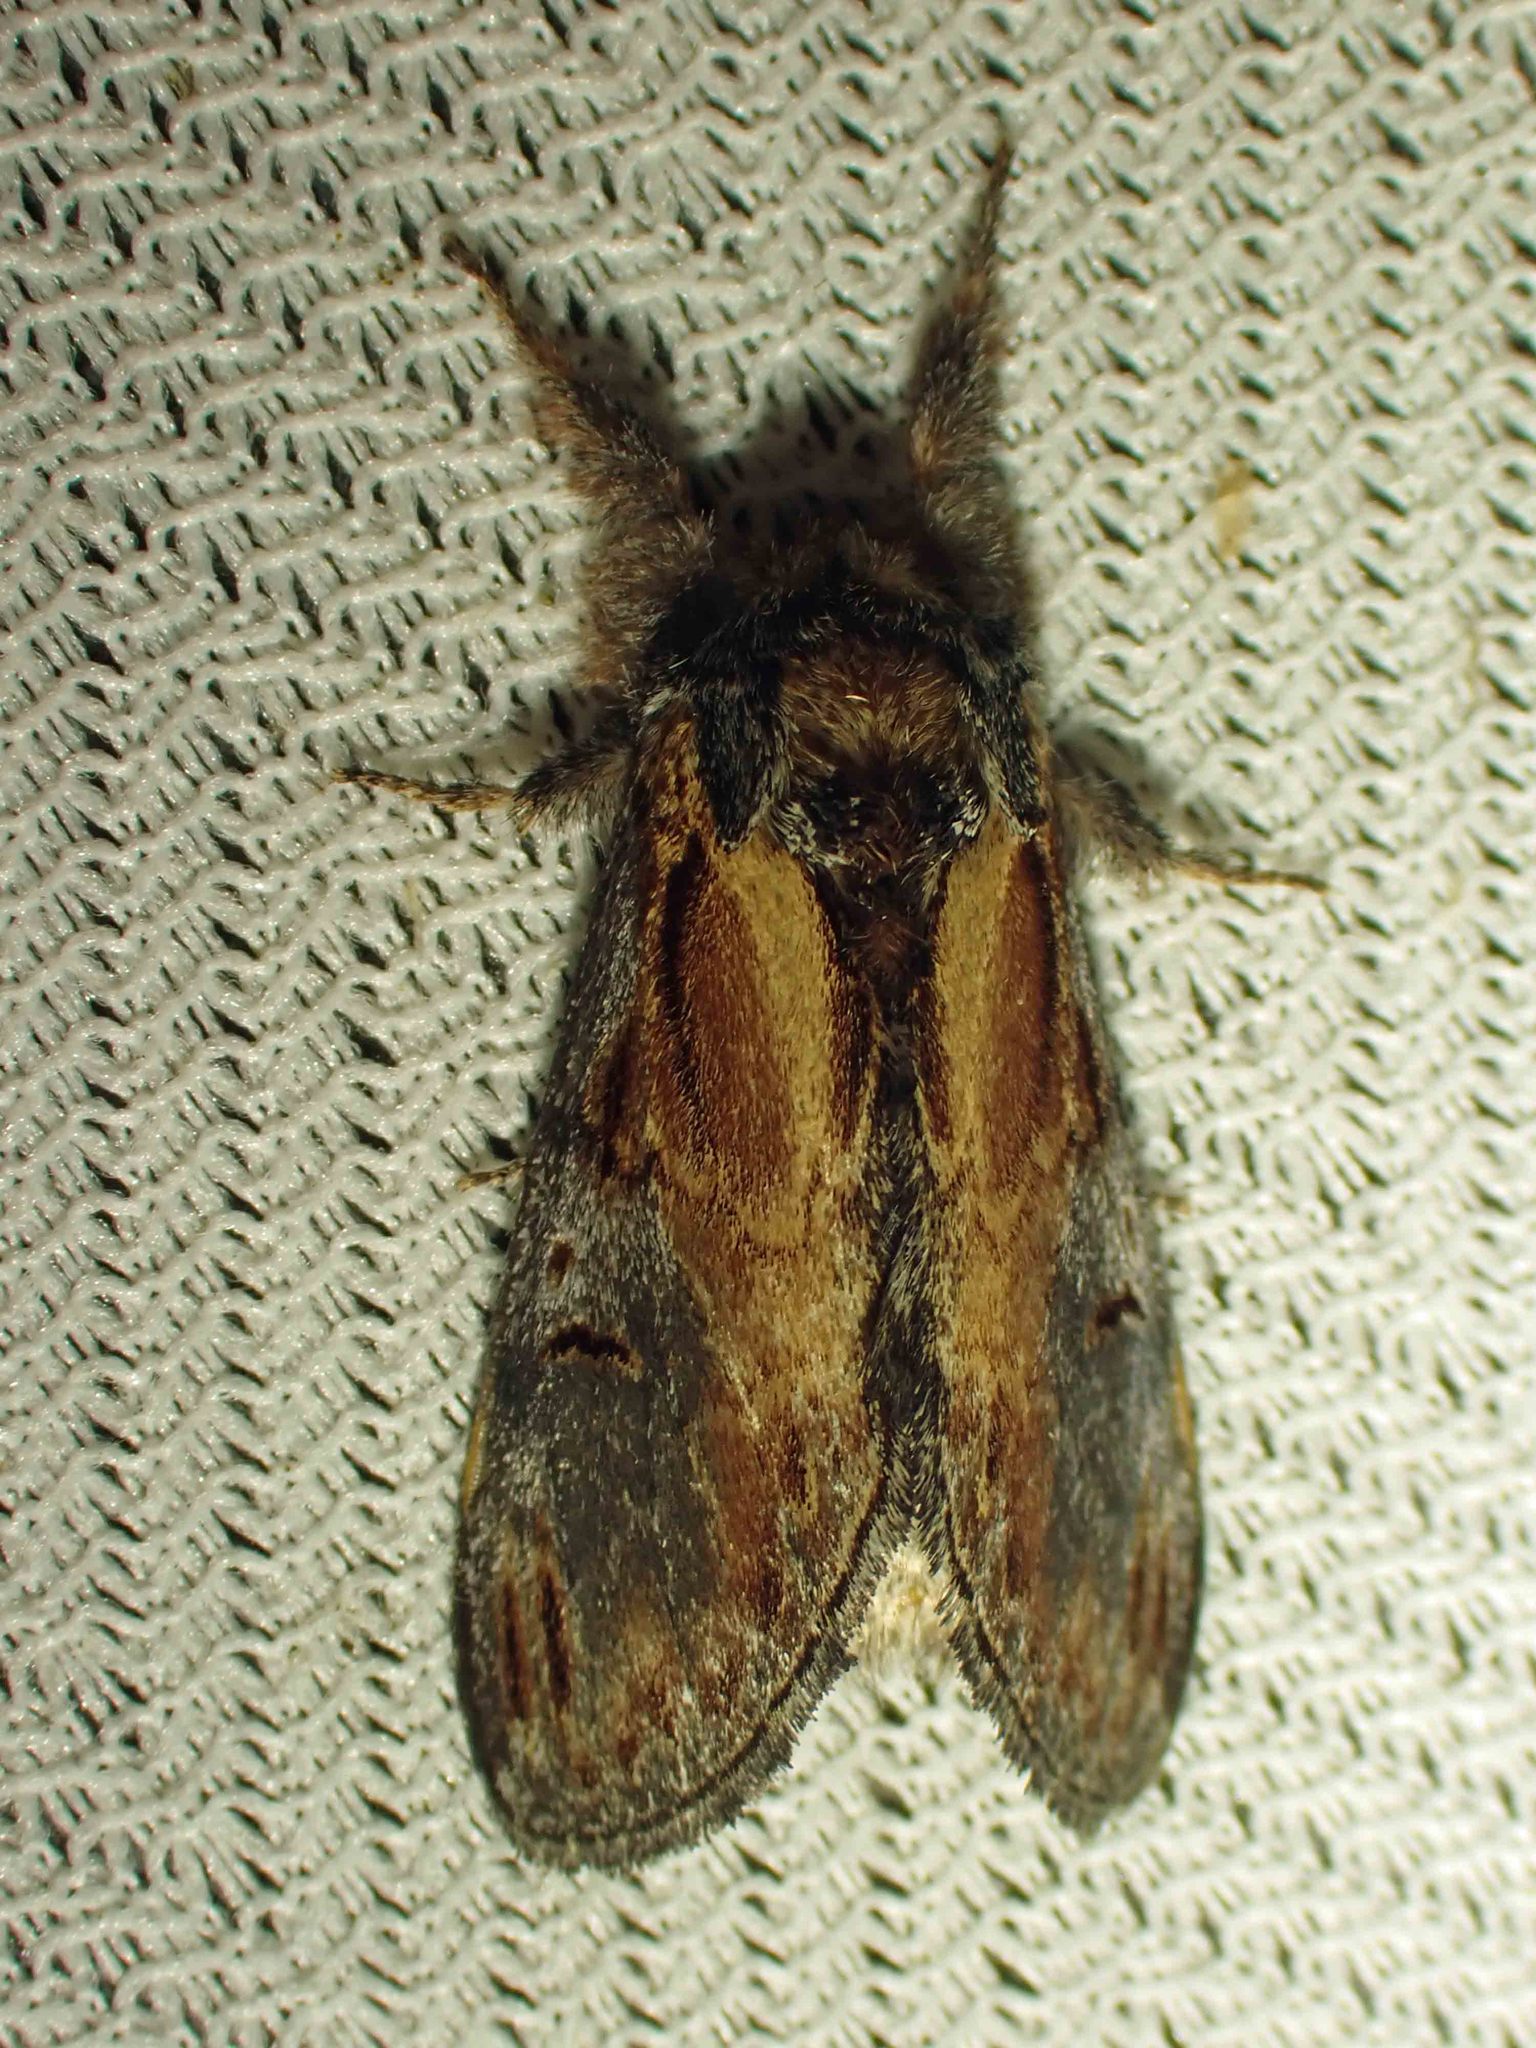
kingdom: Animalia
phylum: Arthropoda
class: Insecta
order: Lepidoptera
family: Notodontidae
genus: Notodonta
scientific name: Notodonta scitipennis
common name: Finned-willow prominent moth
